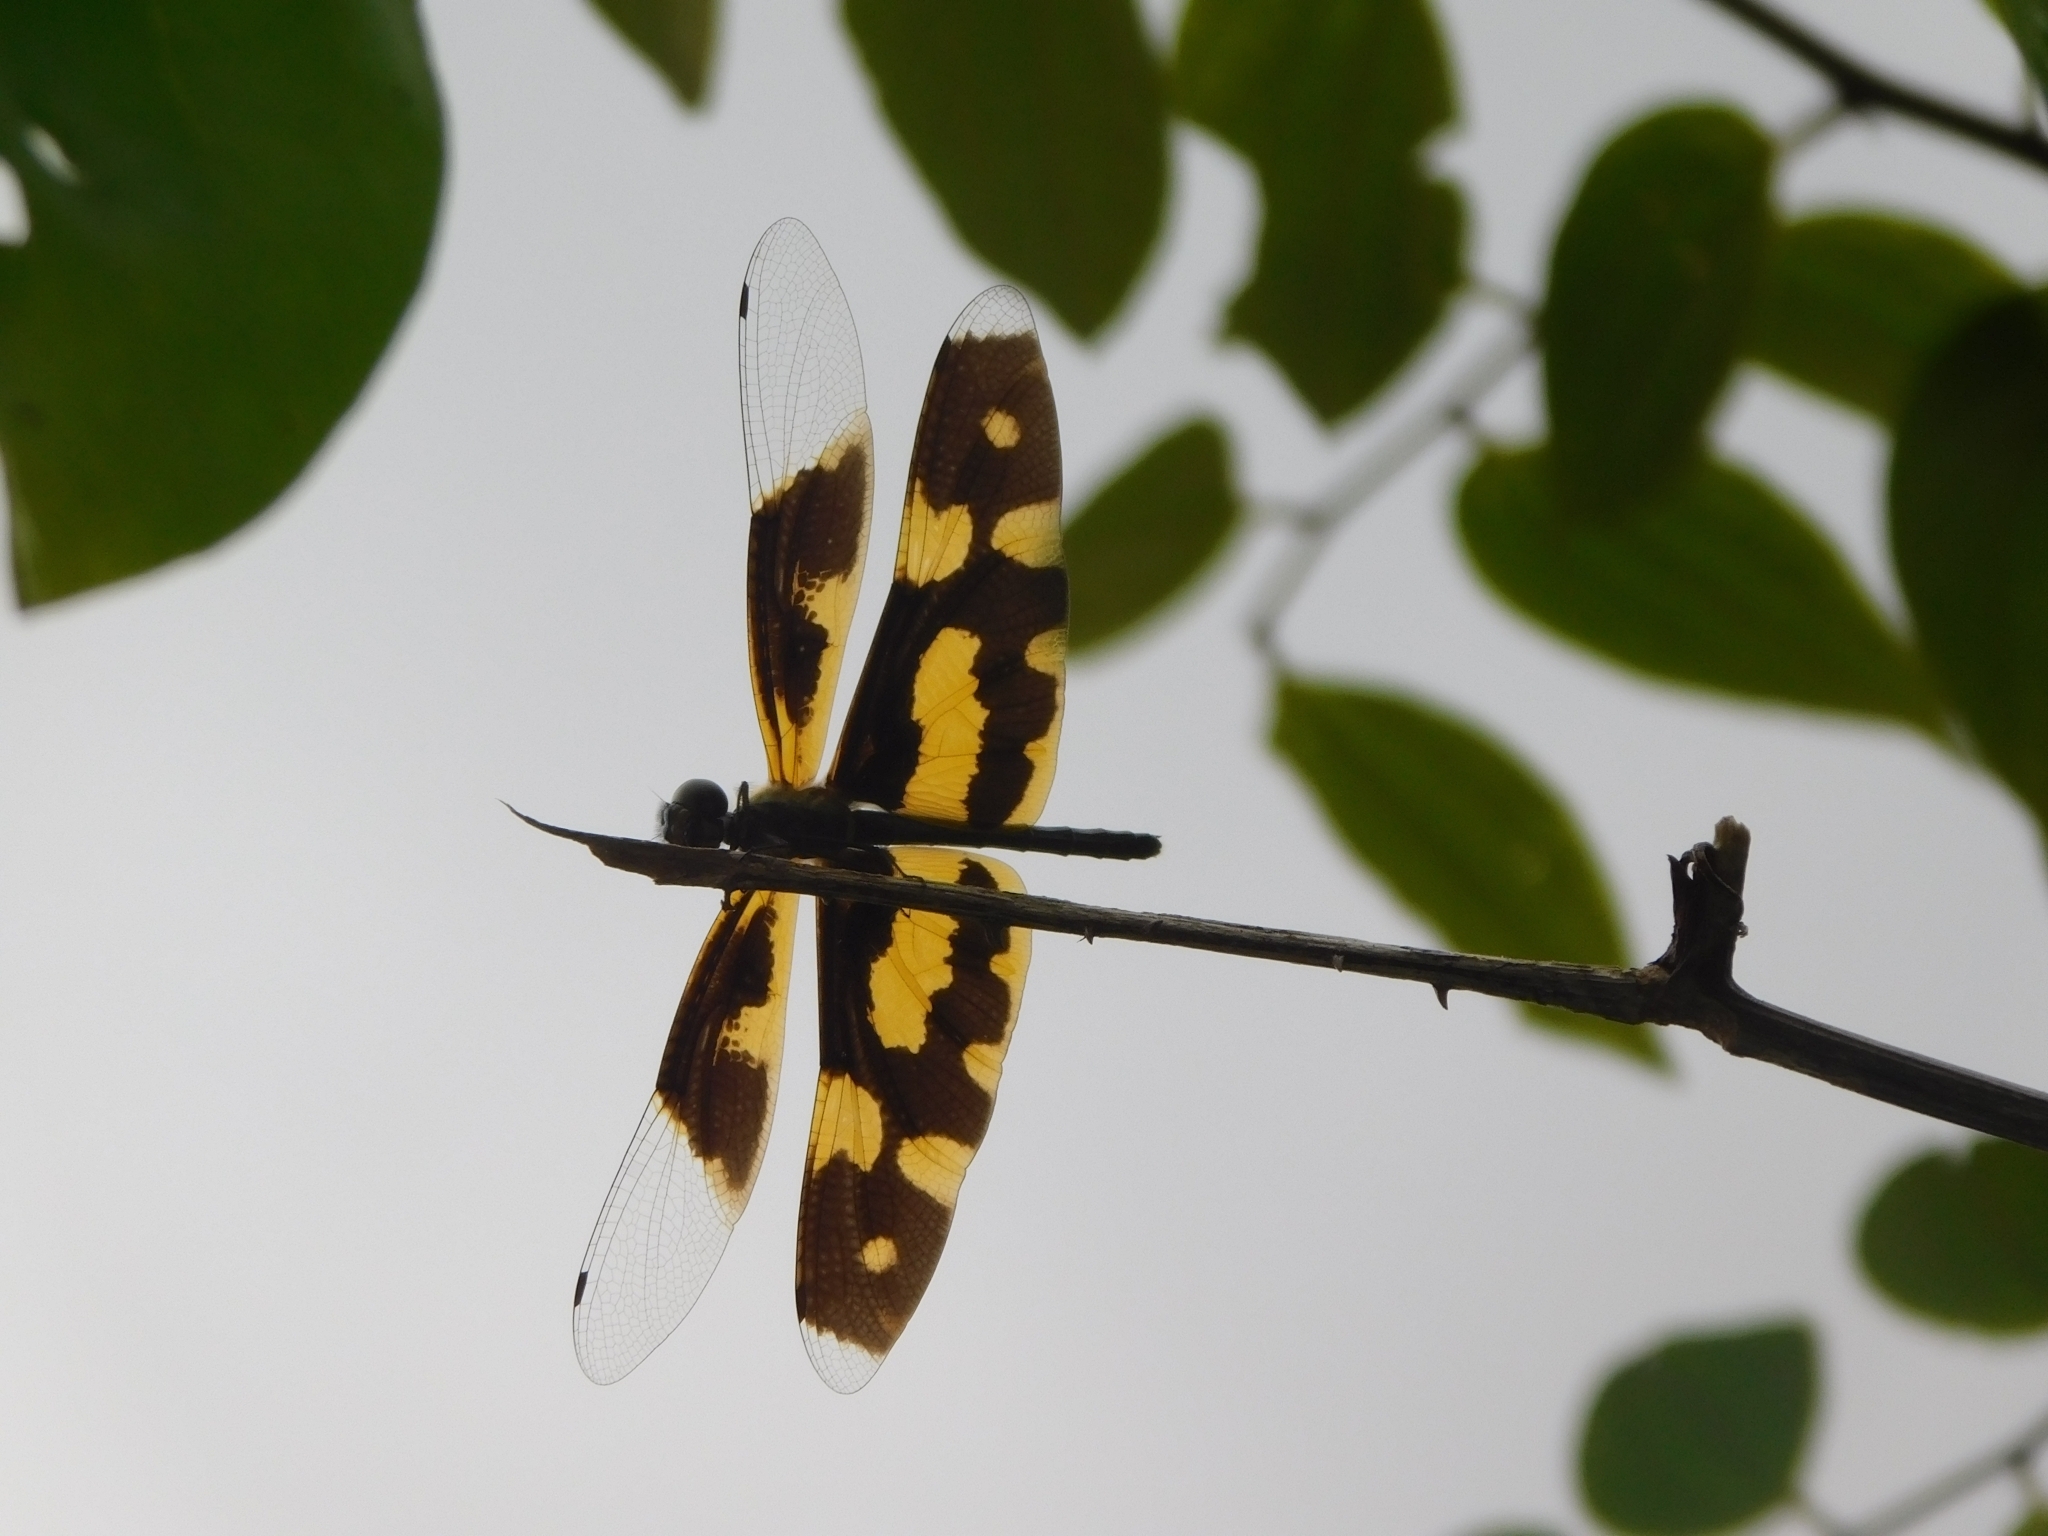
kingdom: Animalia
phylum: Arthropoda
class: Insecta
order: Odonata
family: Libellulidae
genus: Rhyothemis
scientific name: Rhyothemis variegata
